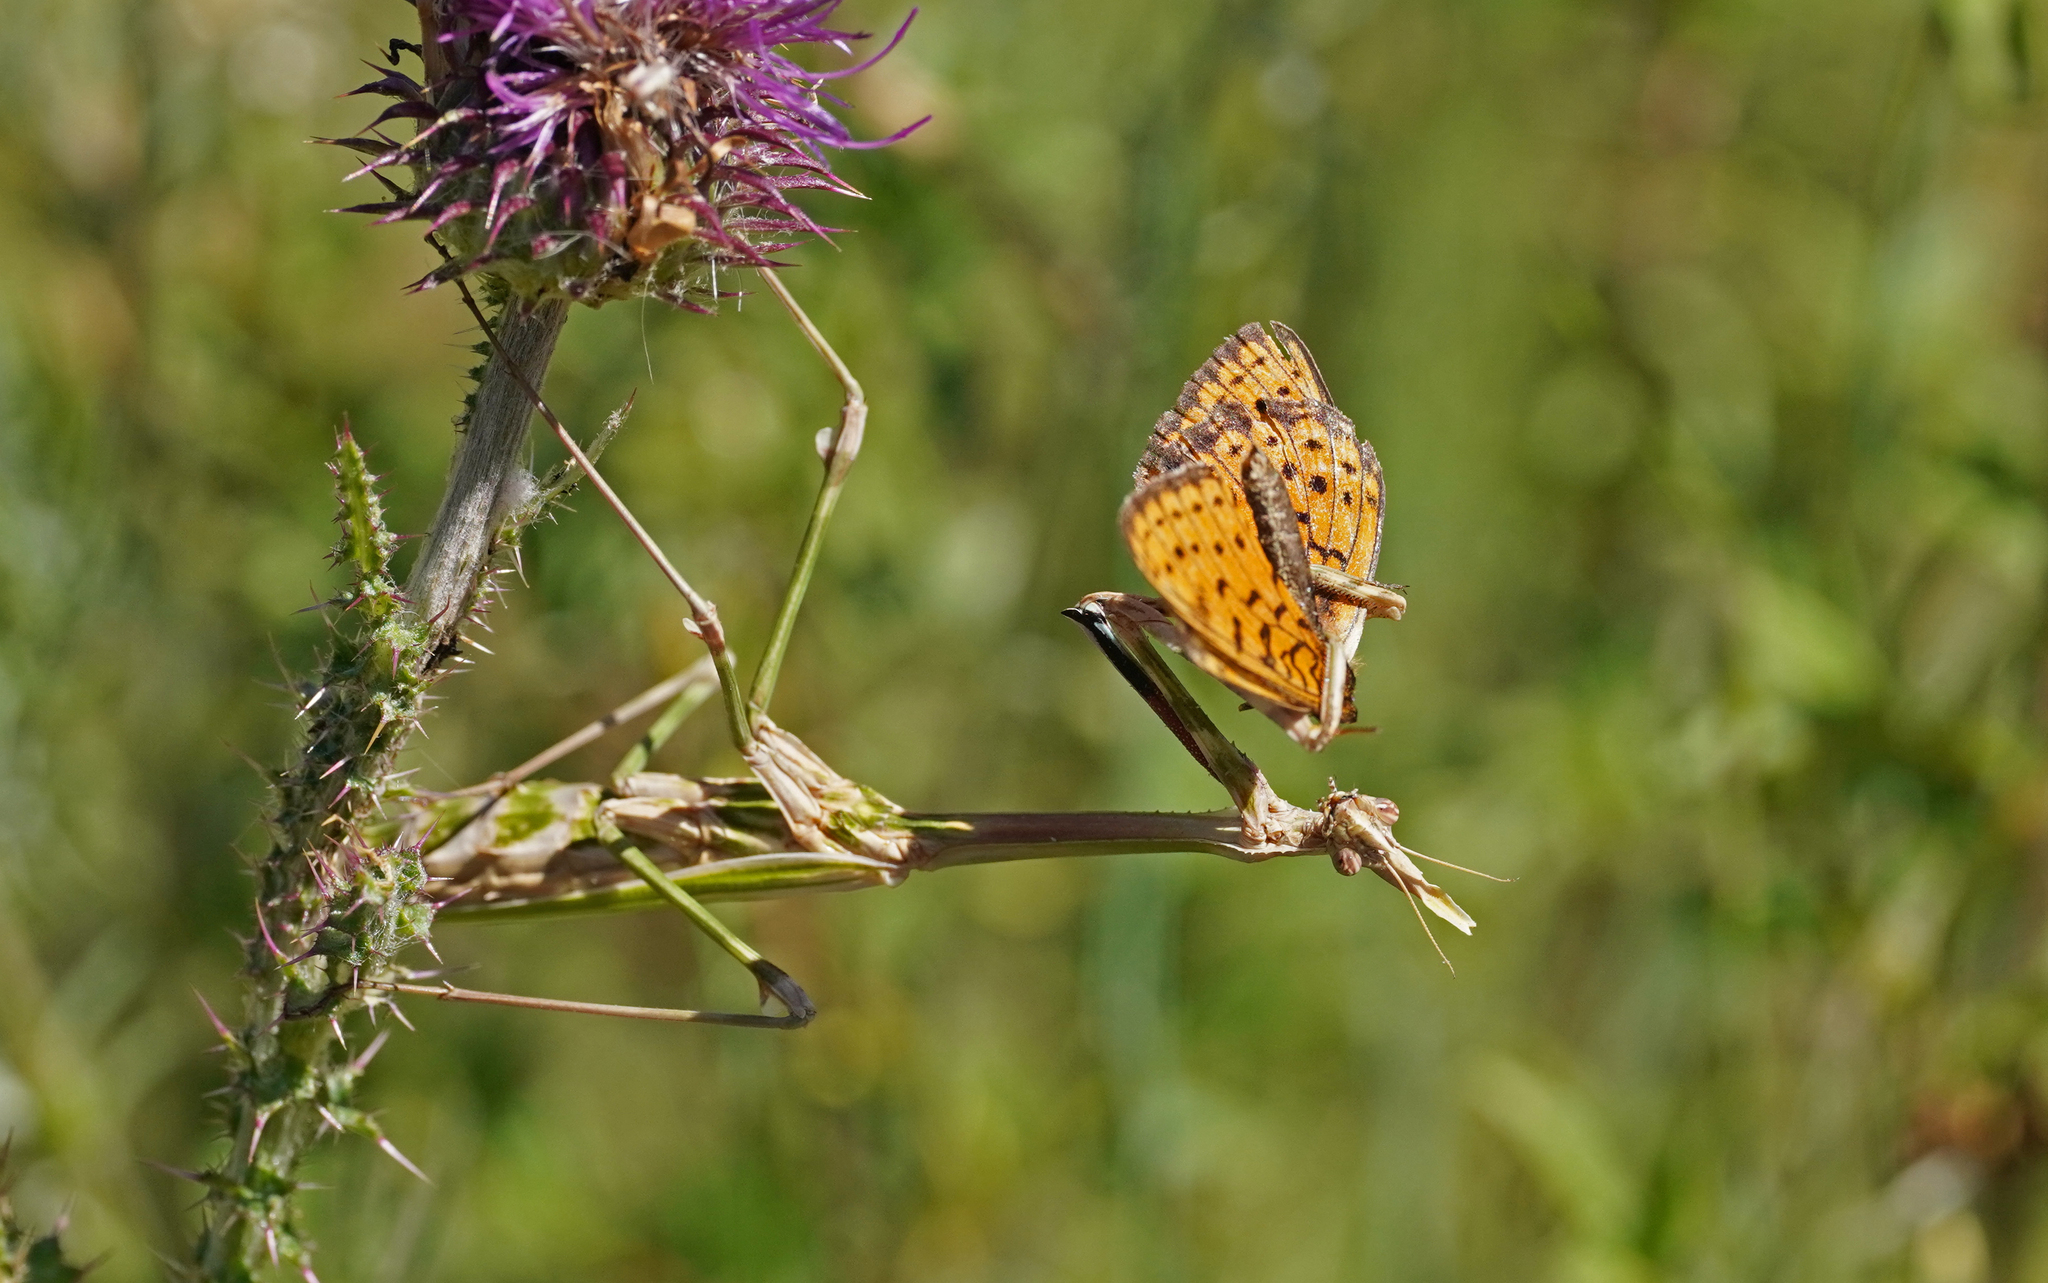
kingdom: Animalia
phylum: Arthropoda
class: Insecta
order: Mantodea
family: Empusidae
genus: Empusa
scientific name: Empusa pennata
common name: Conehead mantis
